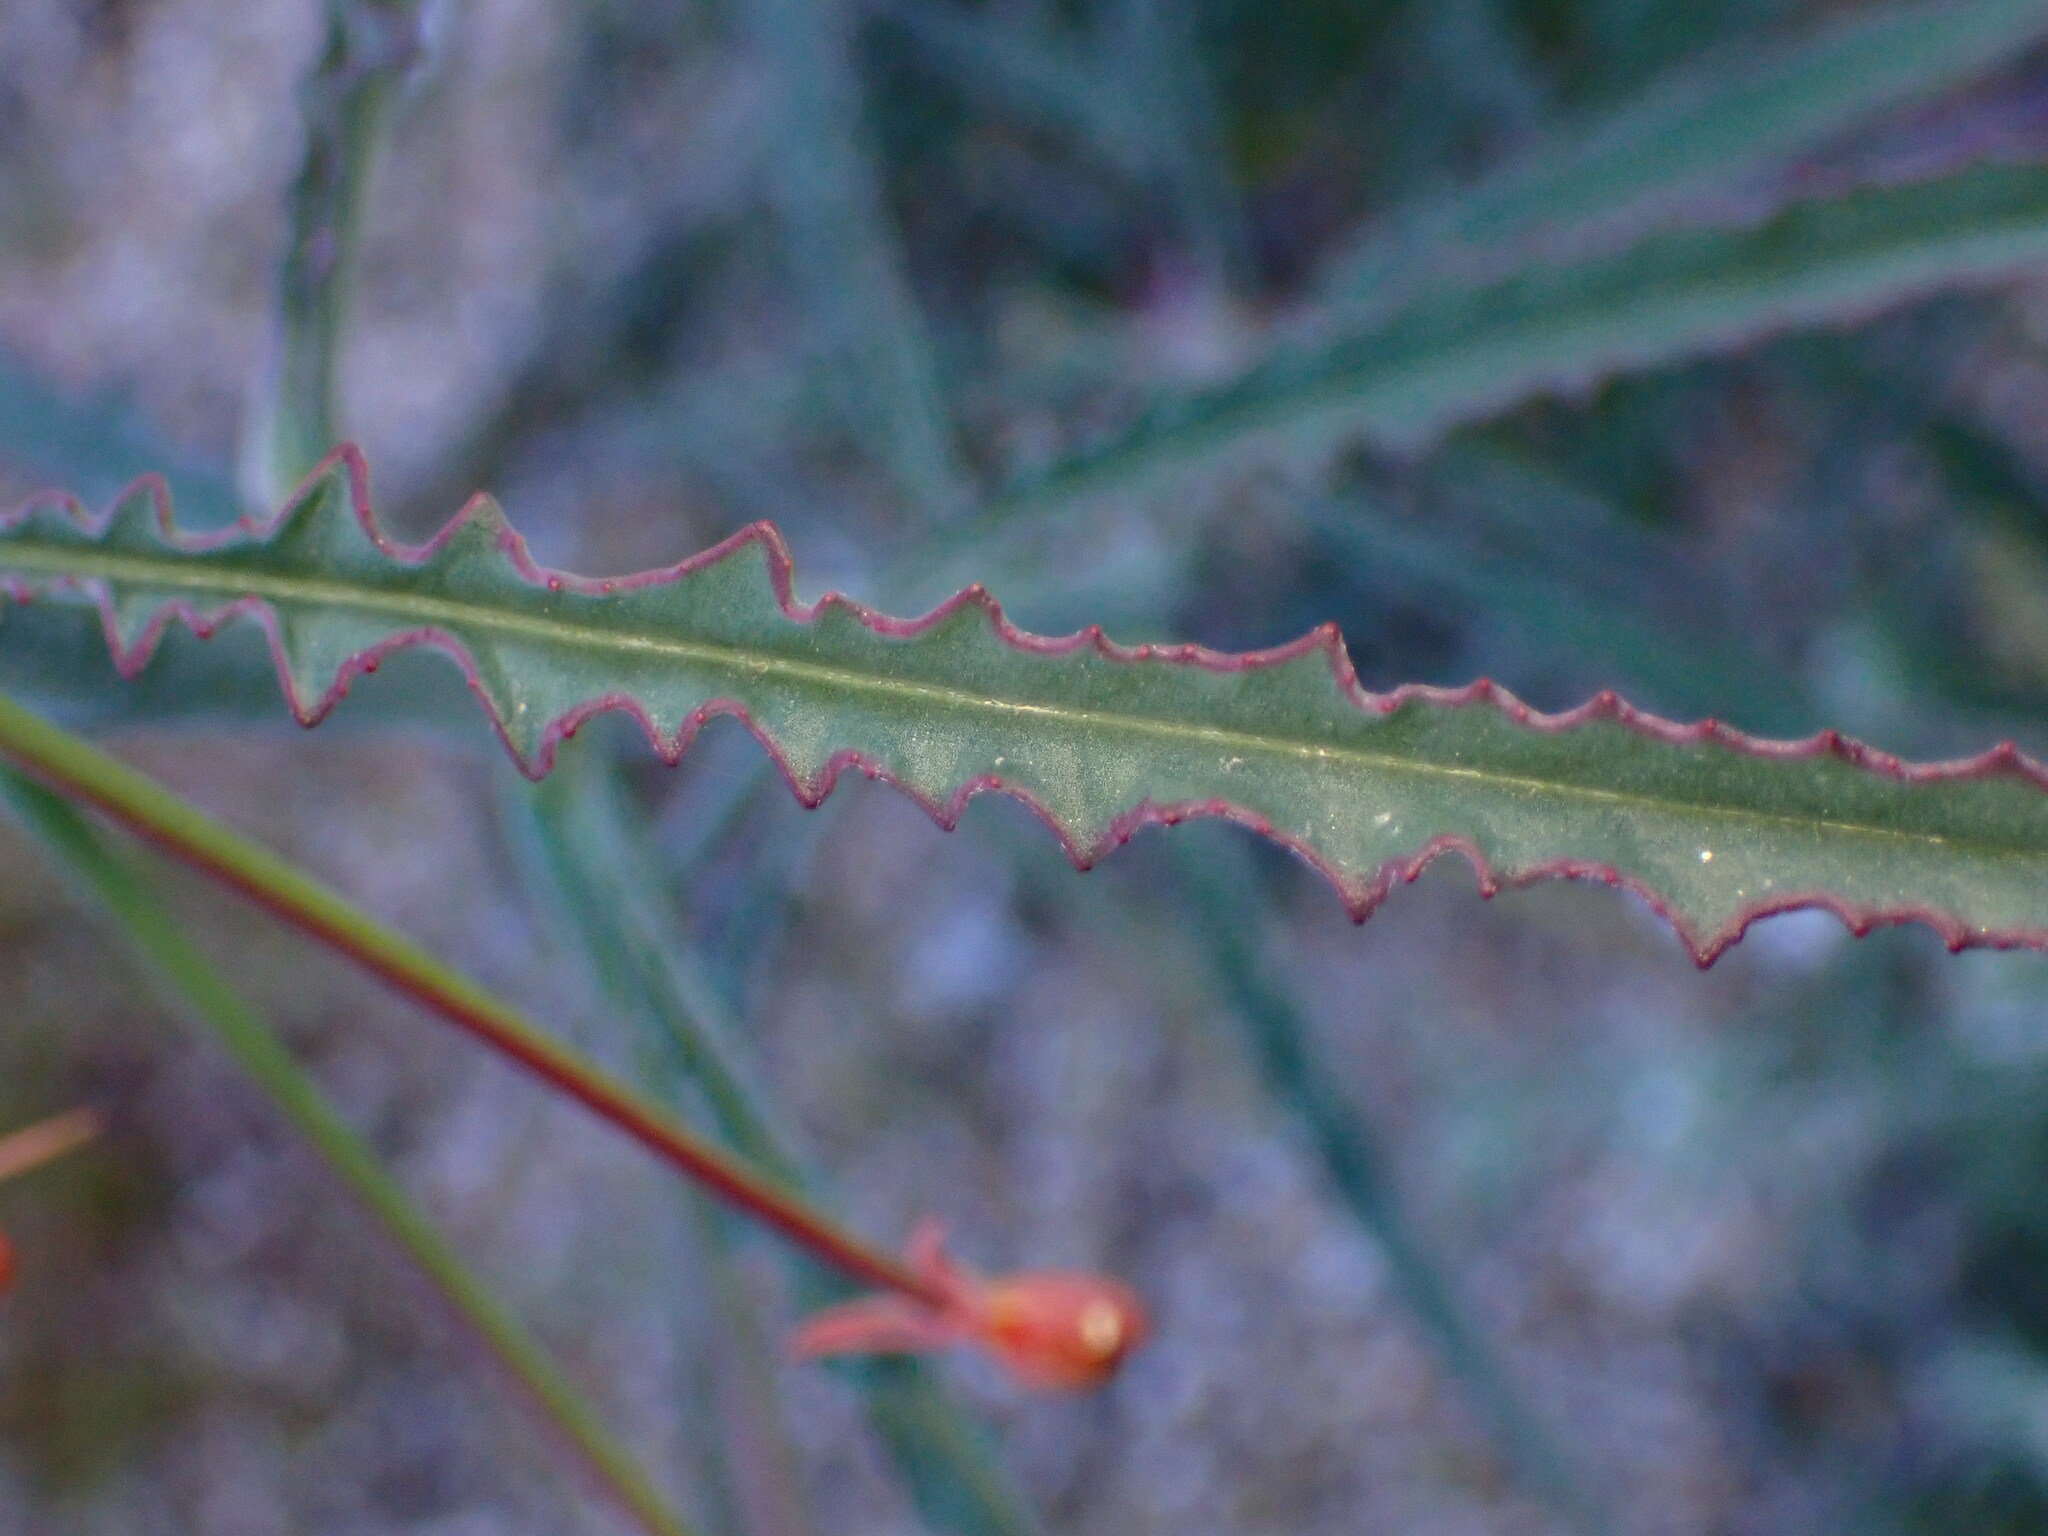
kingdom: Plantae
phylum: Tracheophyta
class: Magnoliopsida
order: Myrtales
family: Onagraceae
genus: Eulobus
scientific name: Eulobus californicus
